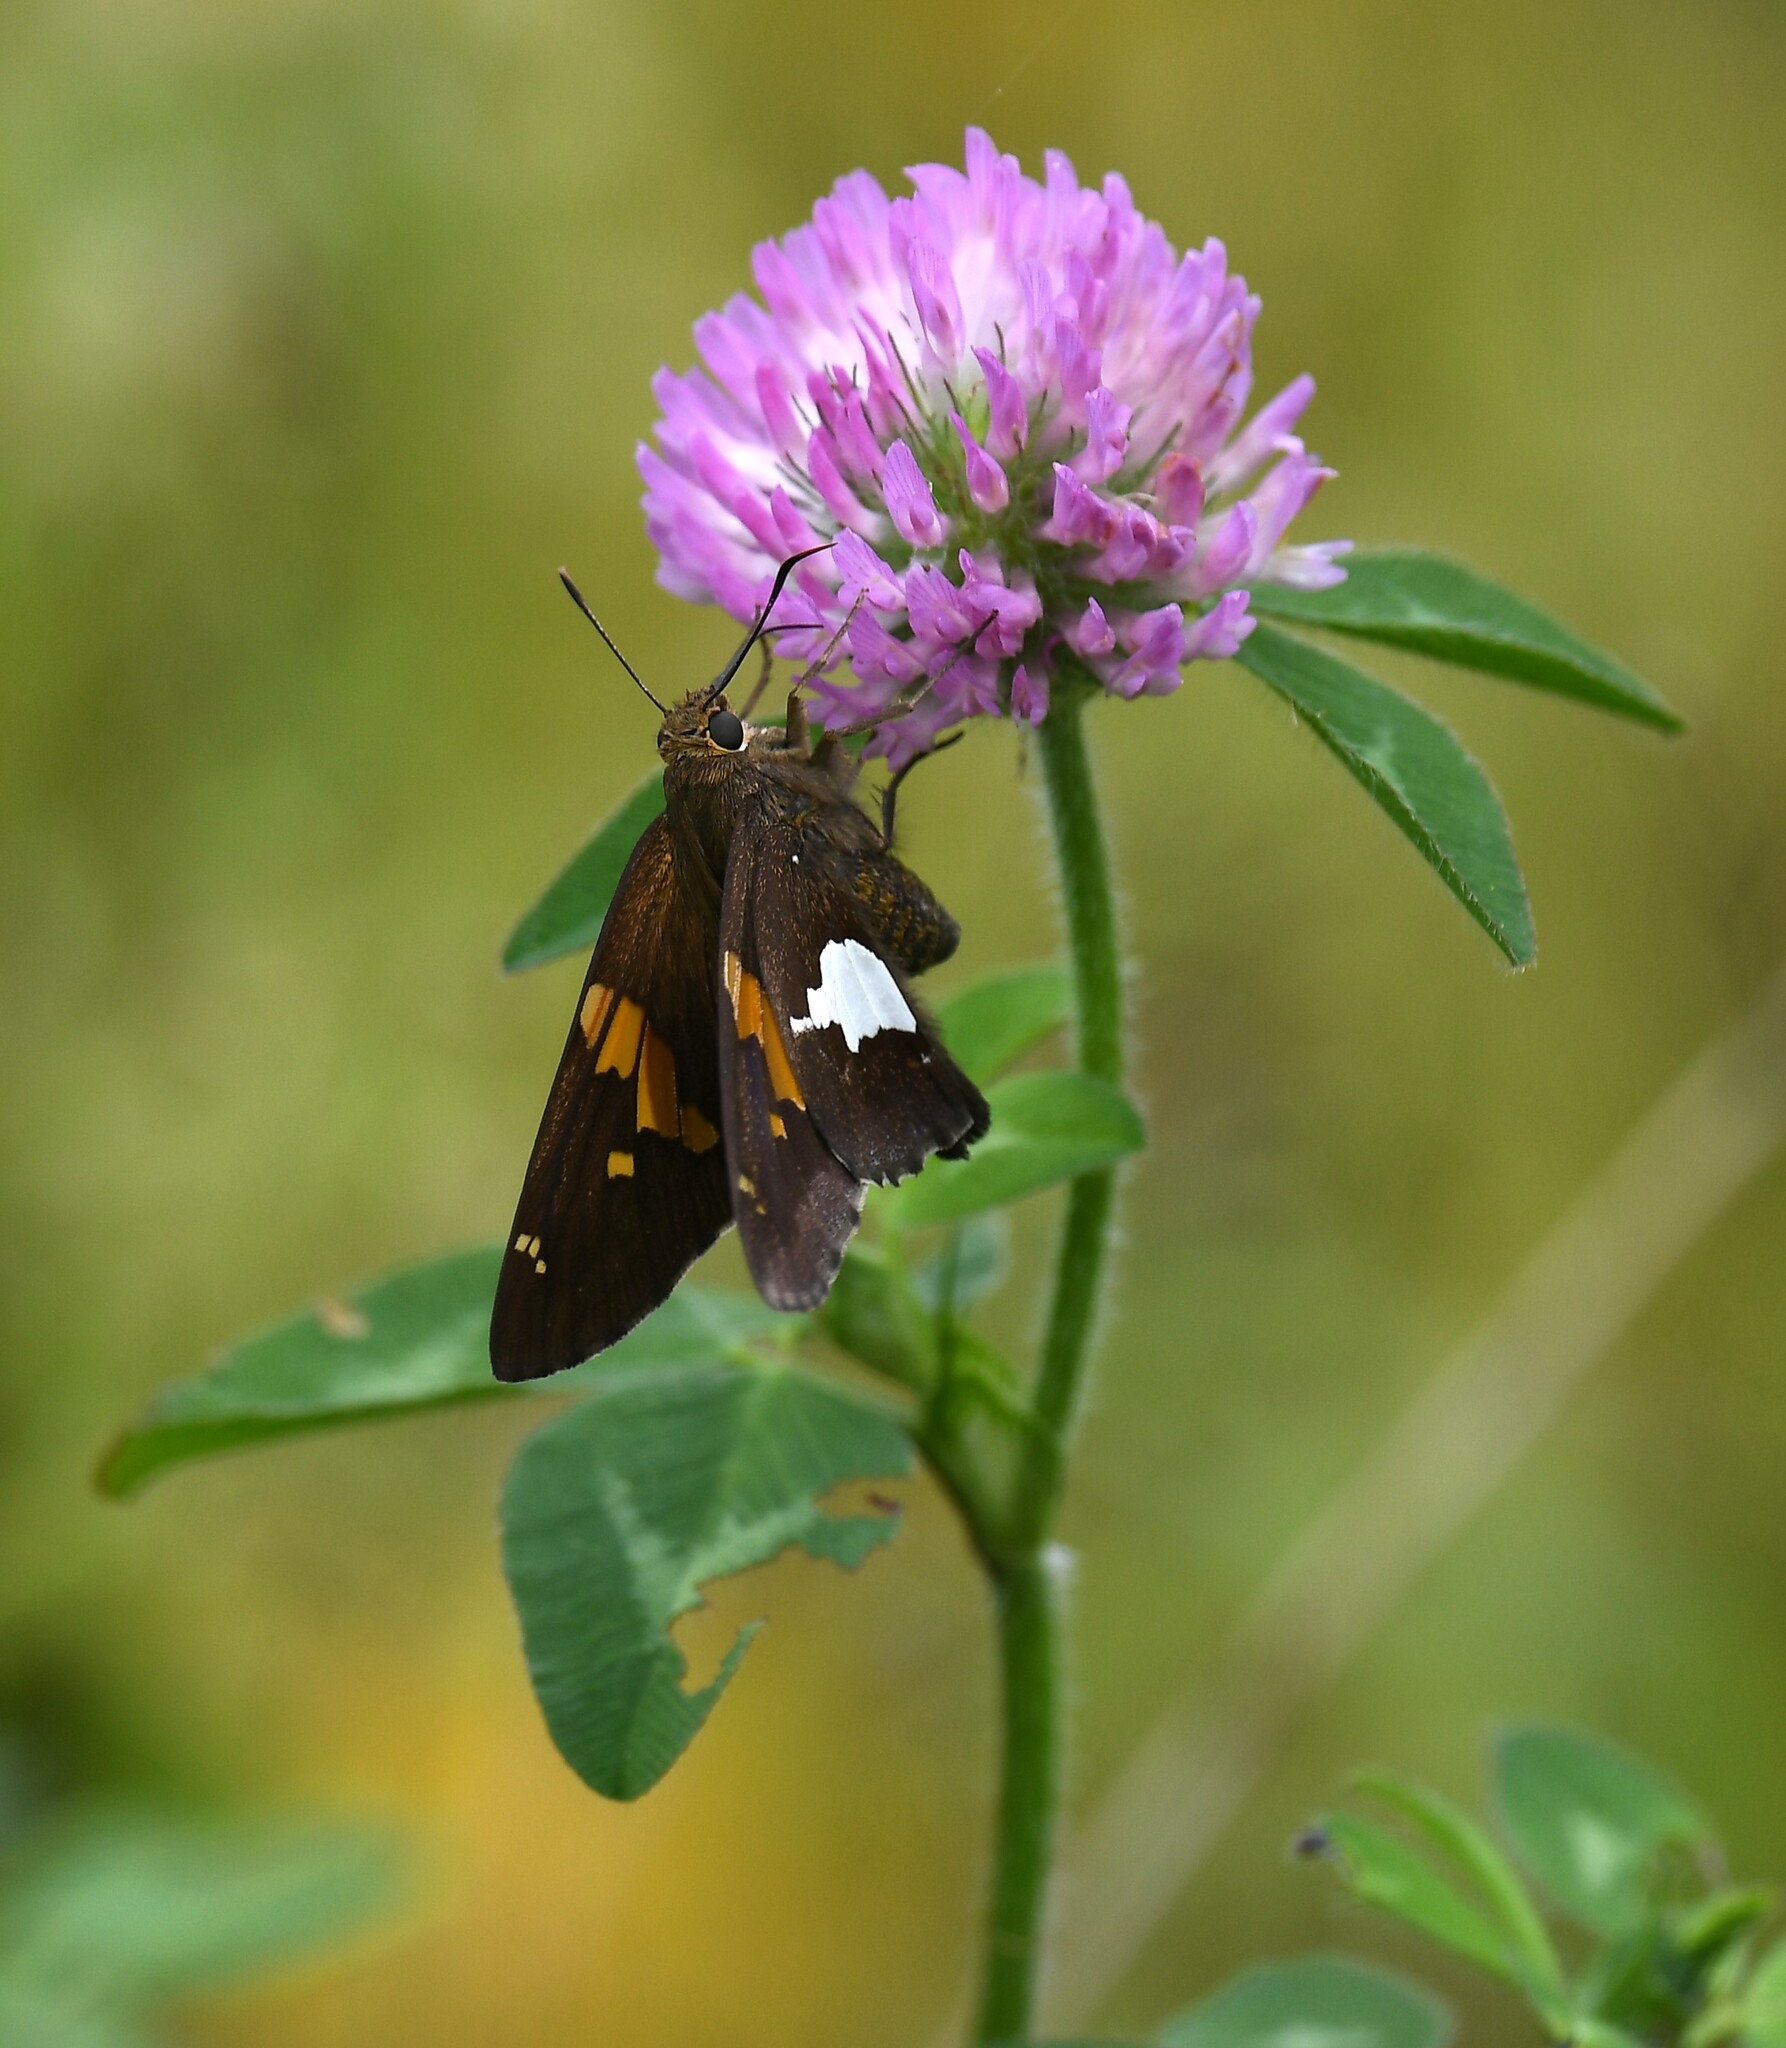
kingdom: Animalia
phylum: Arthropoda
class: Insecta
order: Lepidoptera
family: Hesperiidae
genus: Epargyreus
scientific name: Epargyreus clarus
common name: Silver-spotted skipper
